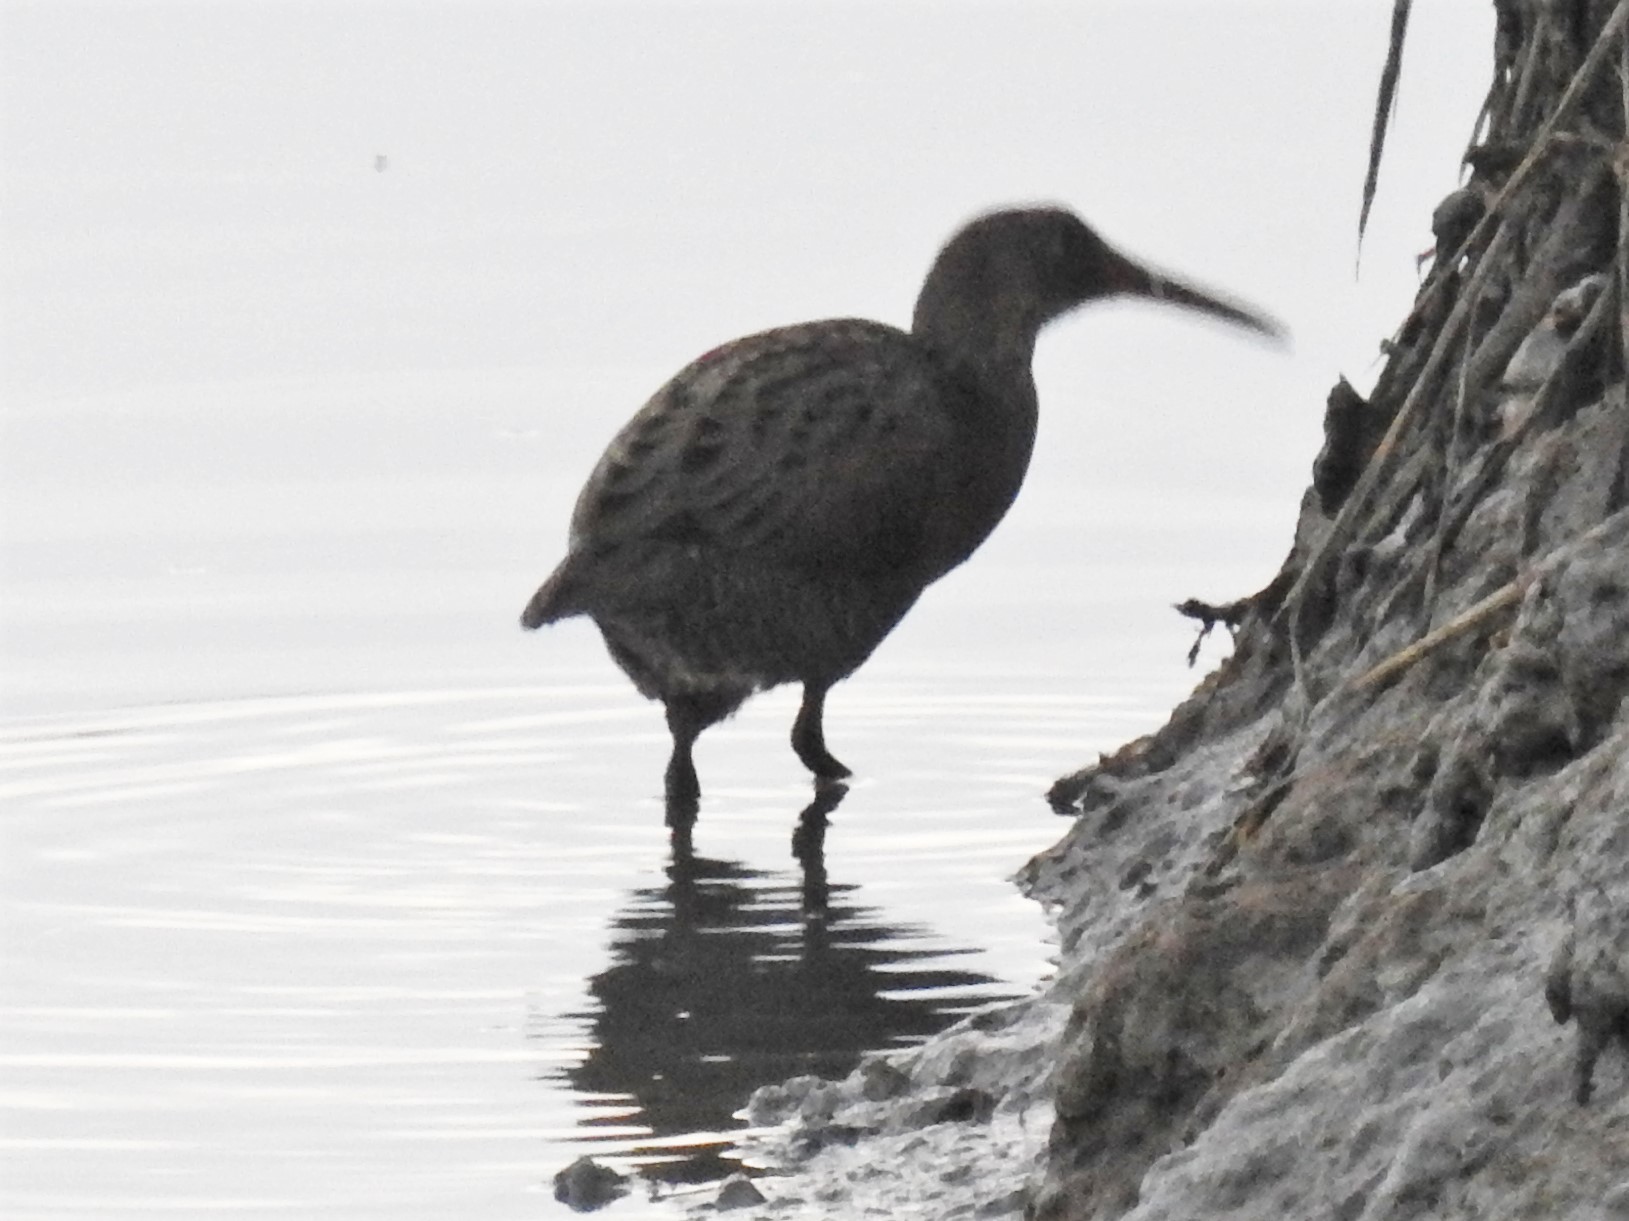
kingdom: Animalia
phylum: Chordata
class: Aves
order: Gruiformes
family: Rallidae
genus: Rallus
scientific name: Rallus obsoletus
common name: Ridgway's rail
